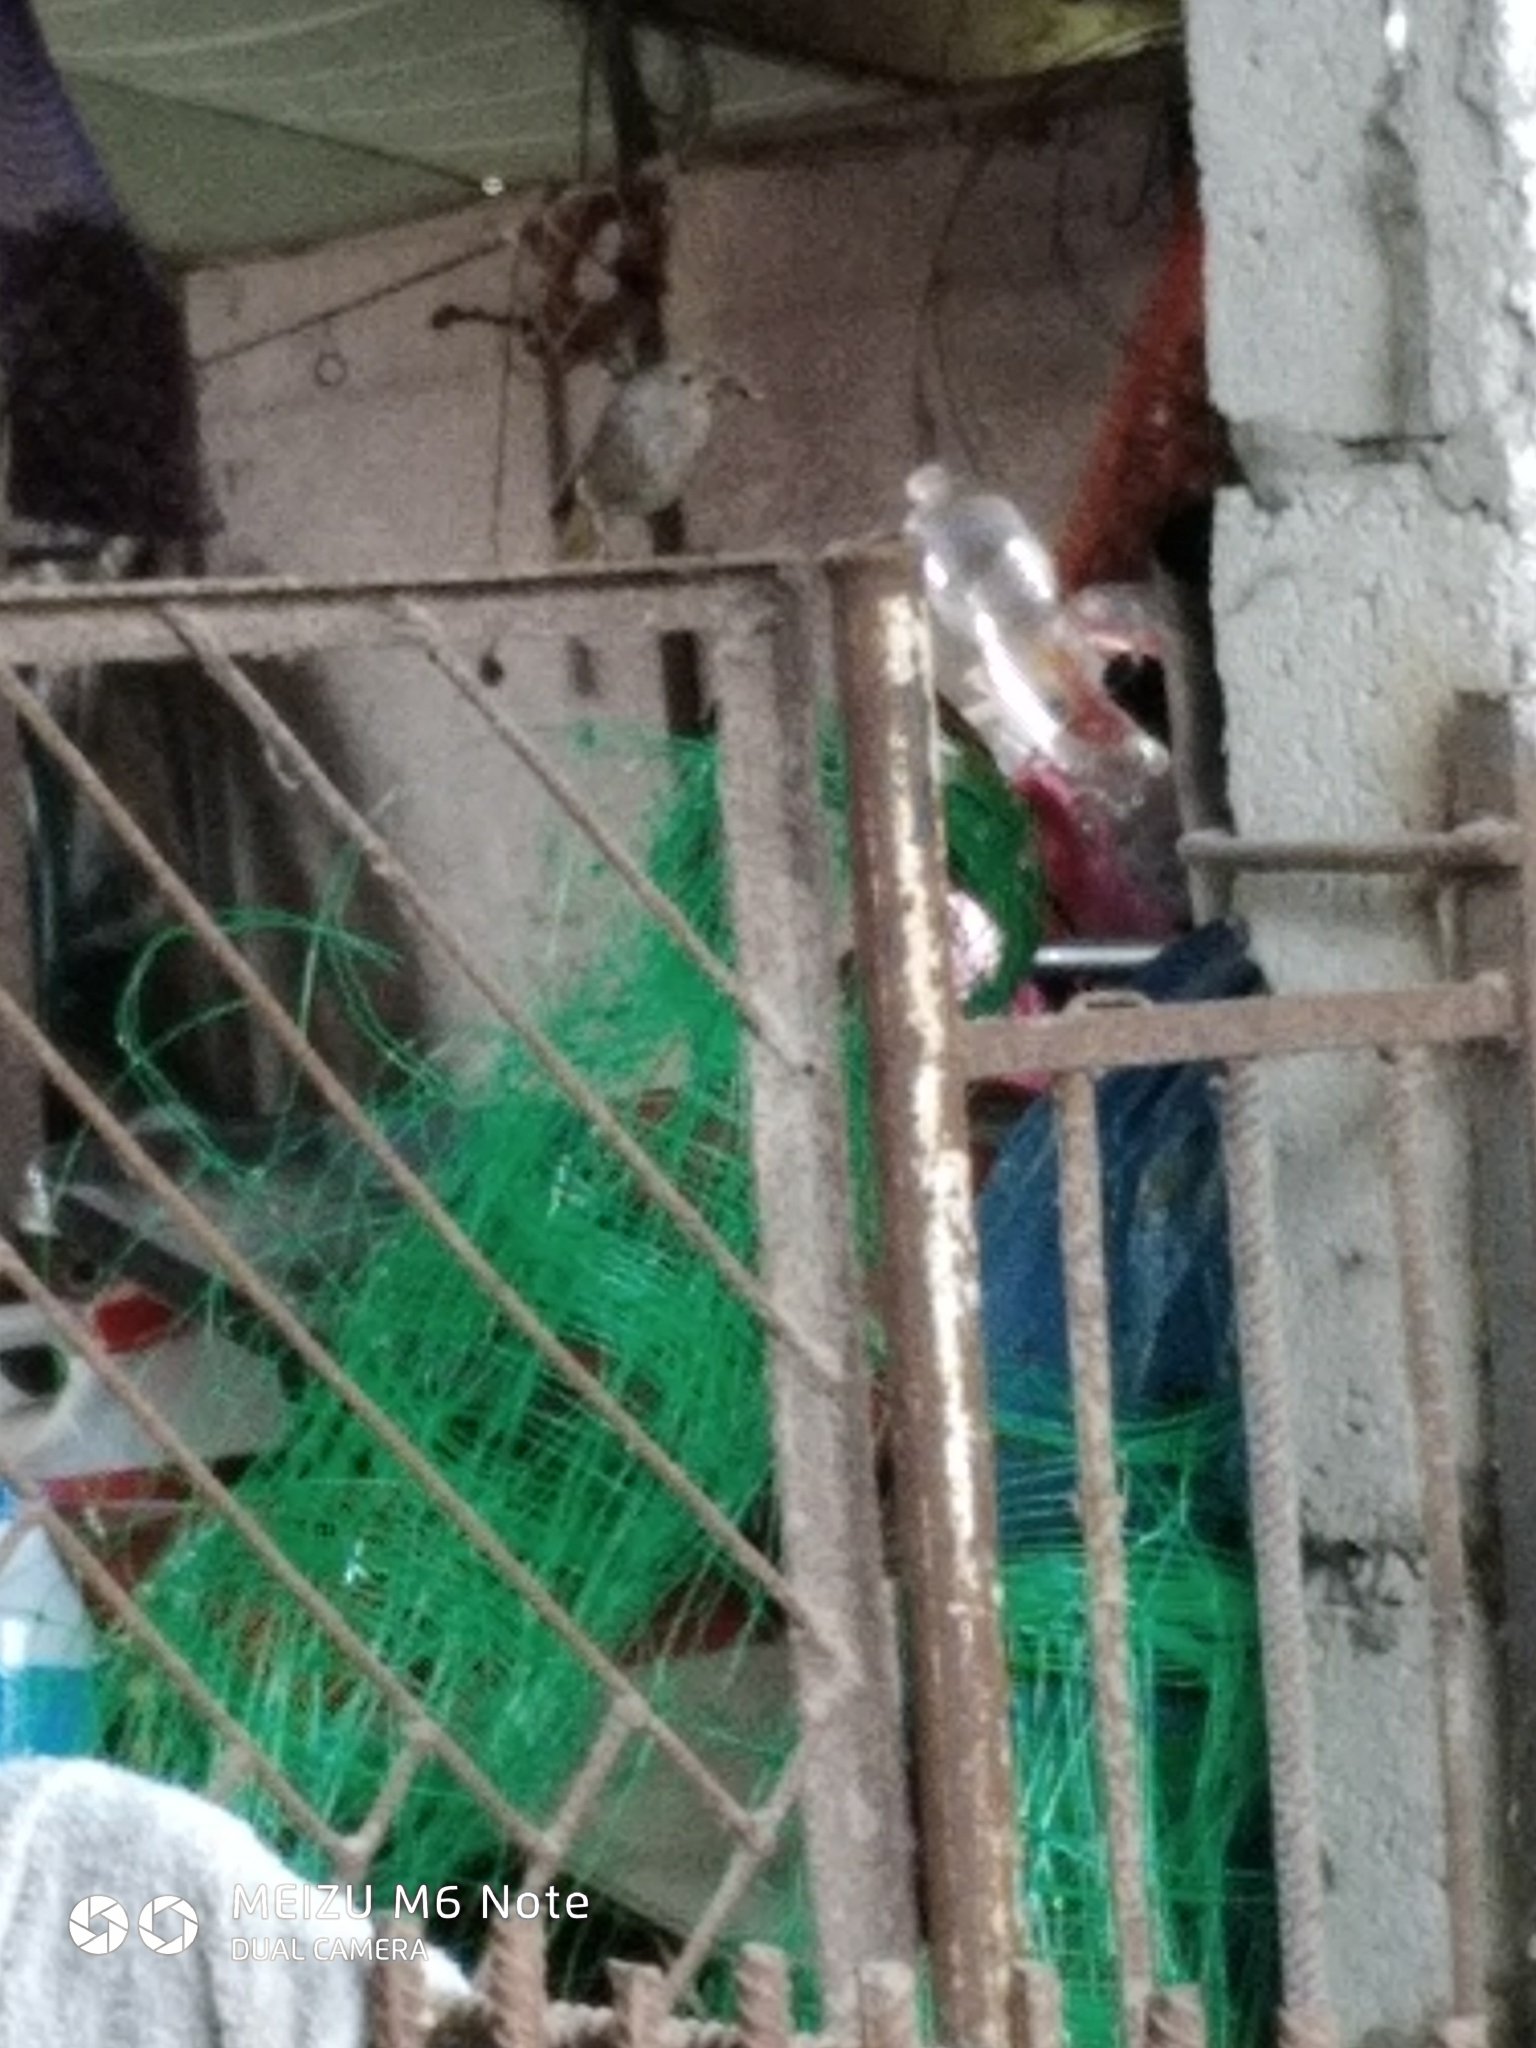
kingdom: Animalia
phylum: Chordata
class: Aves
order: Passeriformes
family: Muscicapidae
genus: Phoenicurus
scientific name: Phoenicurus ochruros
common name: Black redstart
